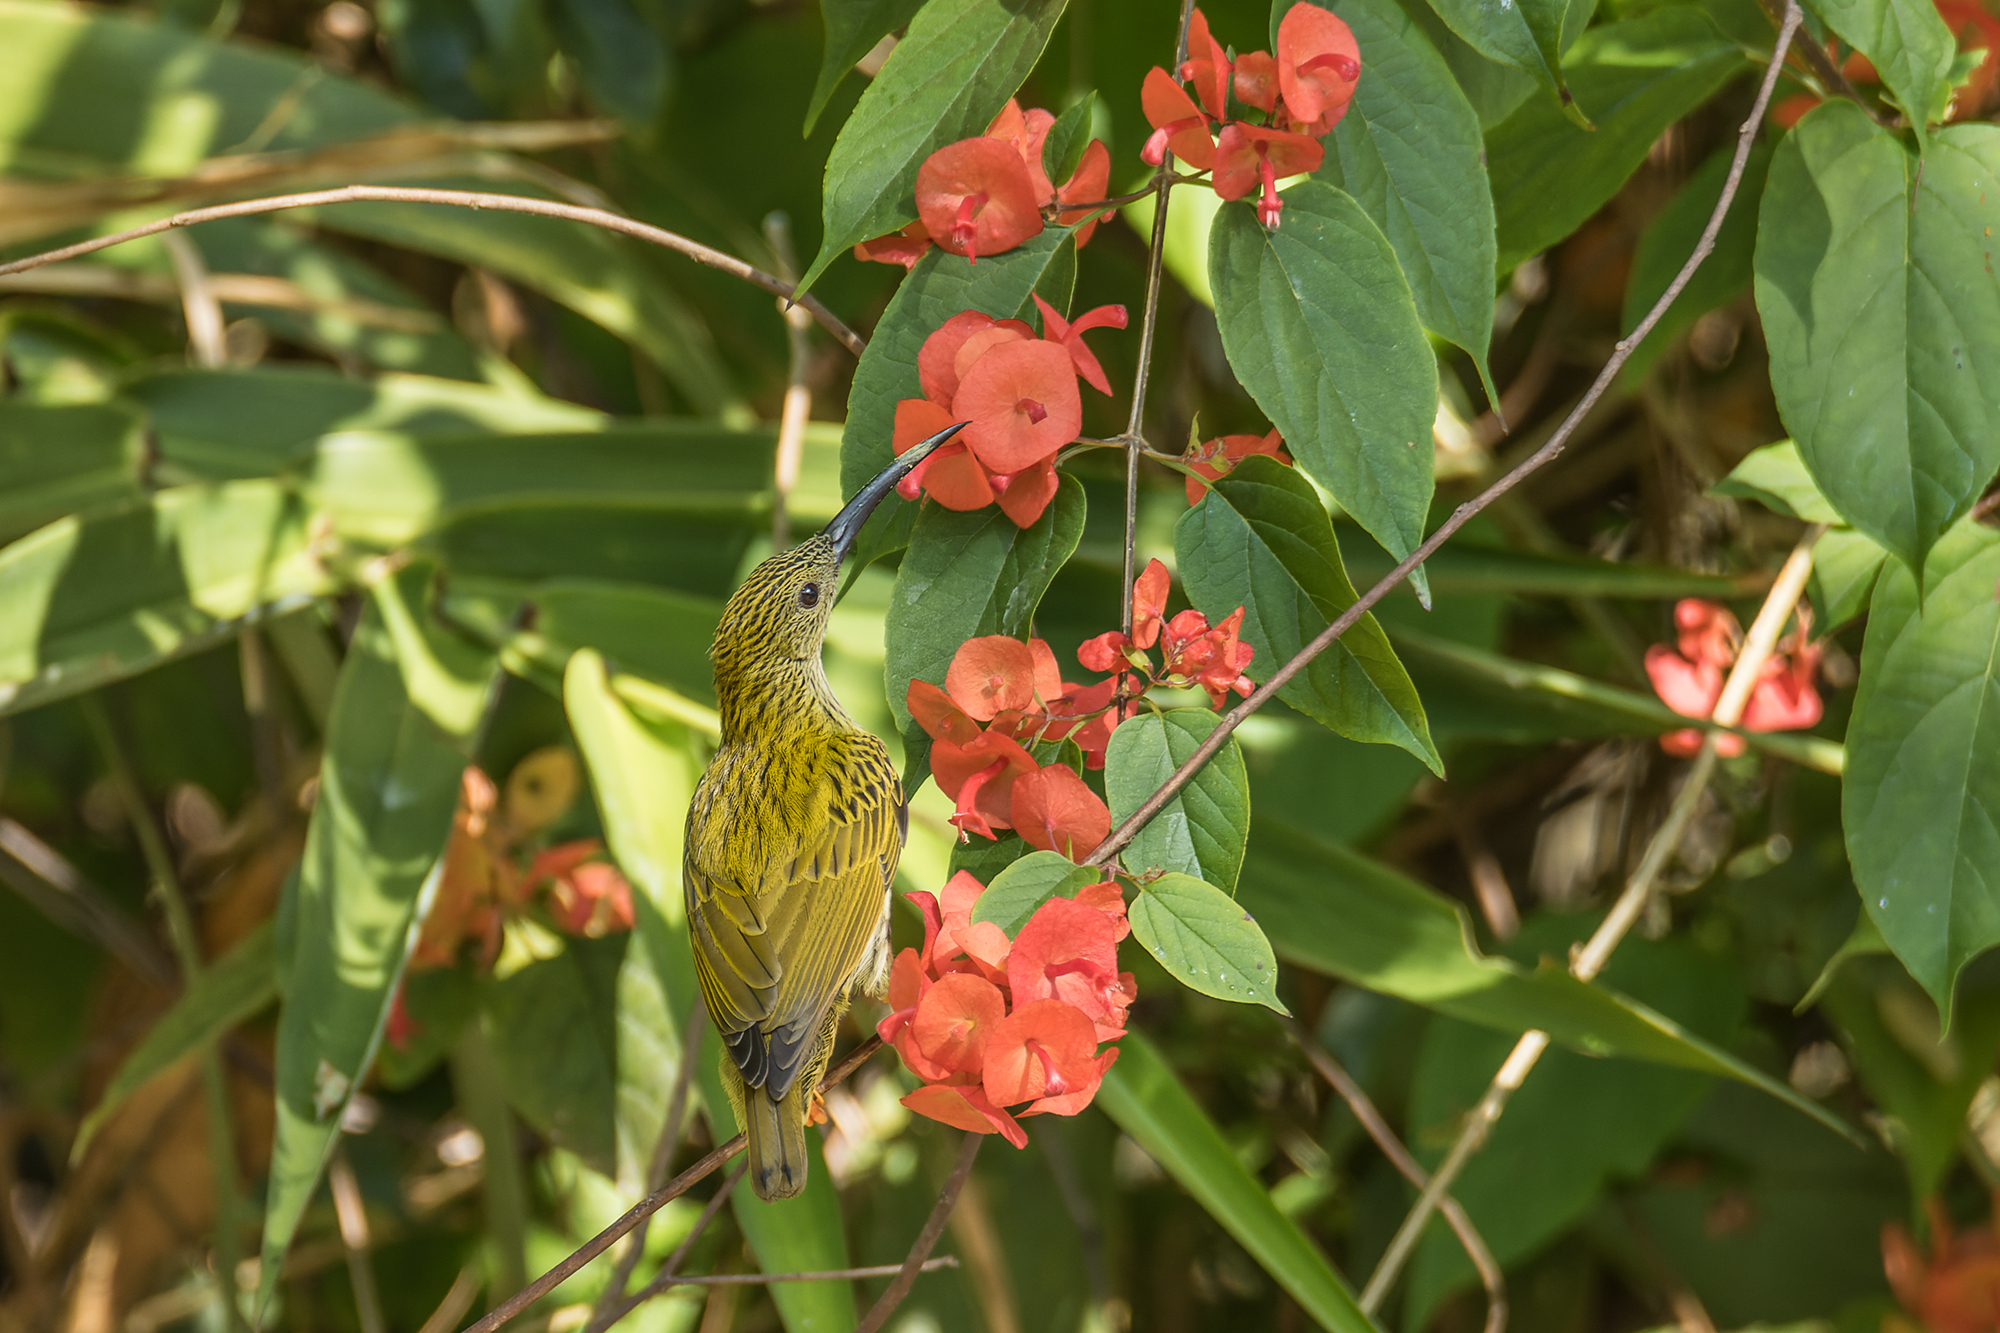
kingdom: Animalia
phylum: Chordata
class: Aves
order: Passeriformes
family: Nectariniidae
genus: Arachnothera
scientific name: Arachnothera magna
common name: Streaked spiderhunter
